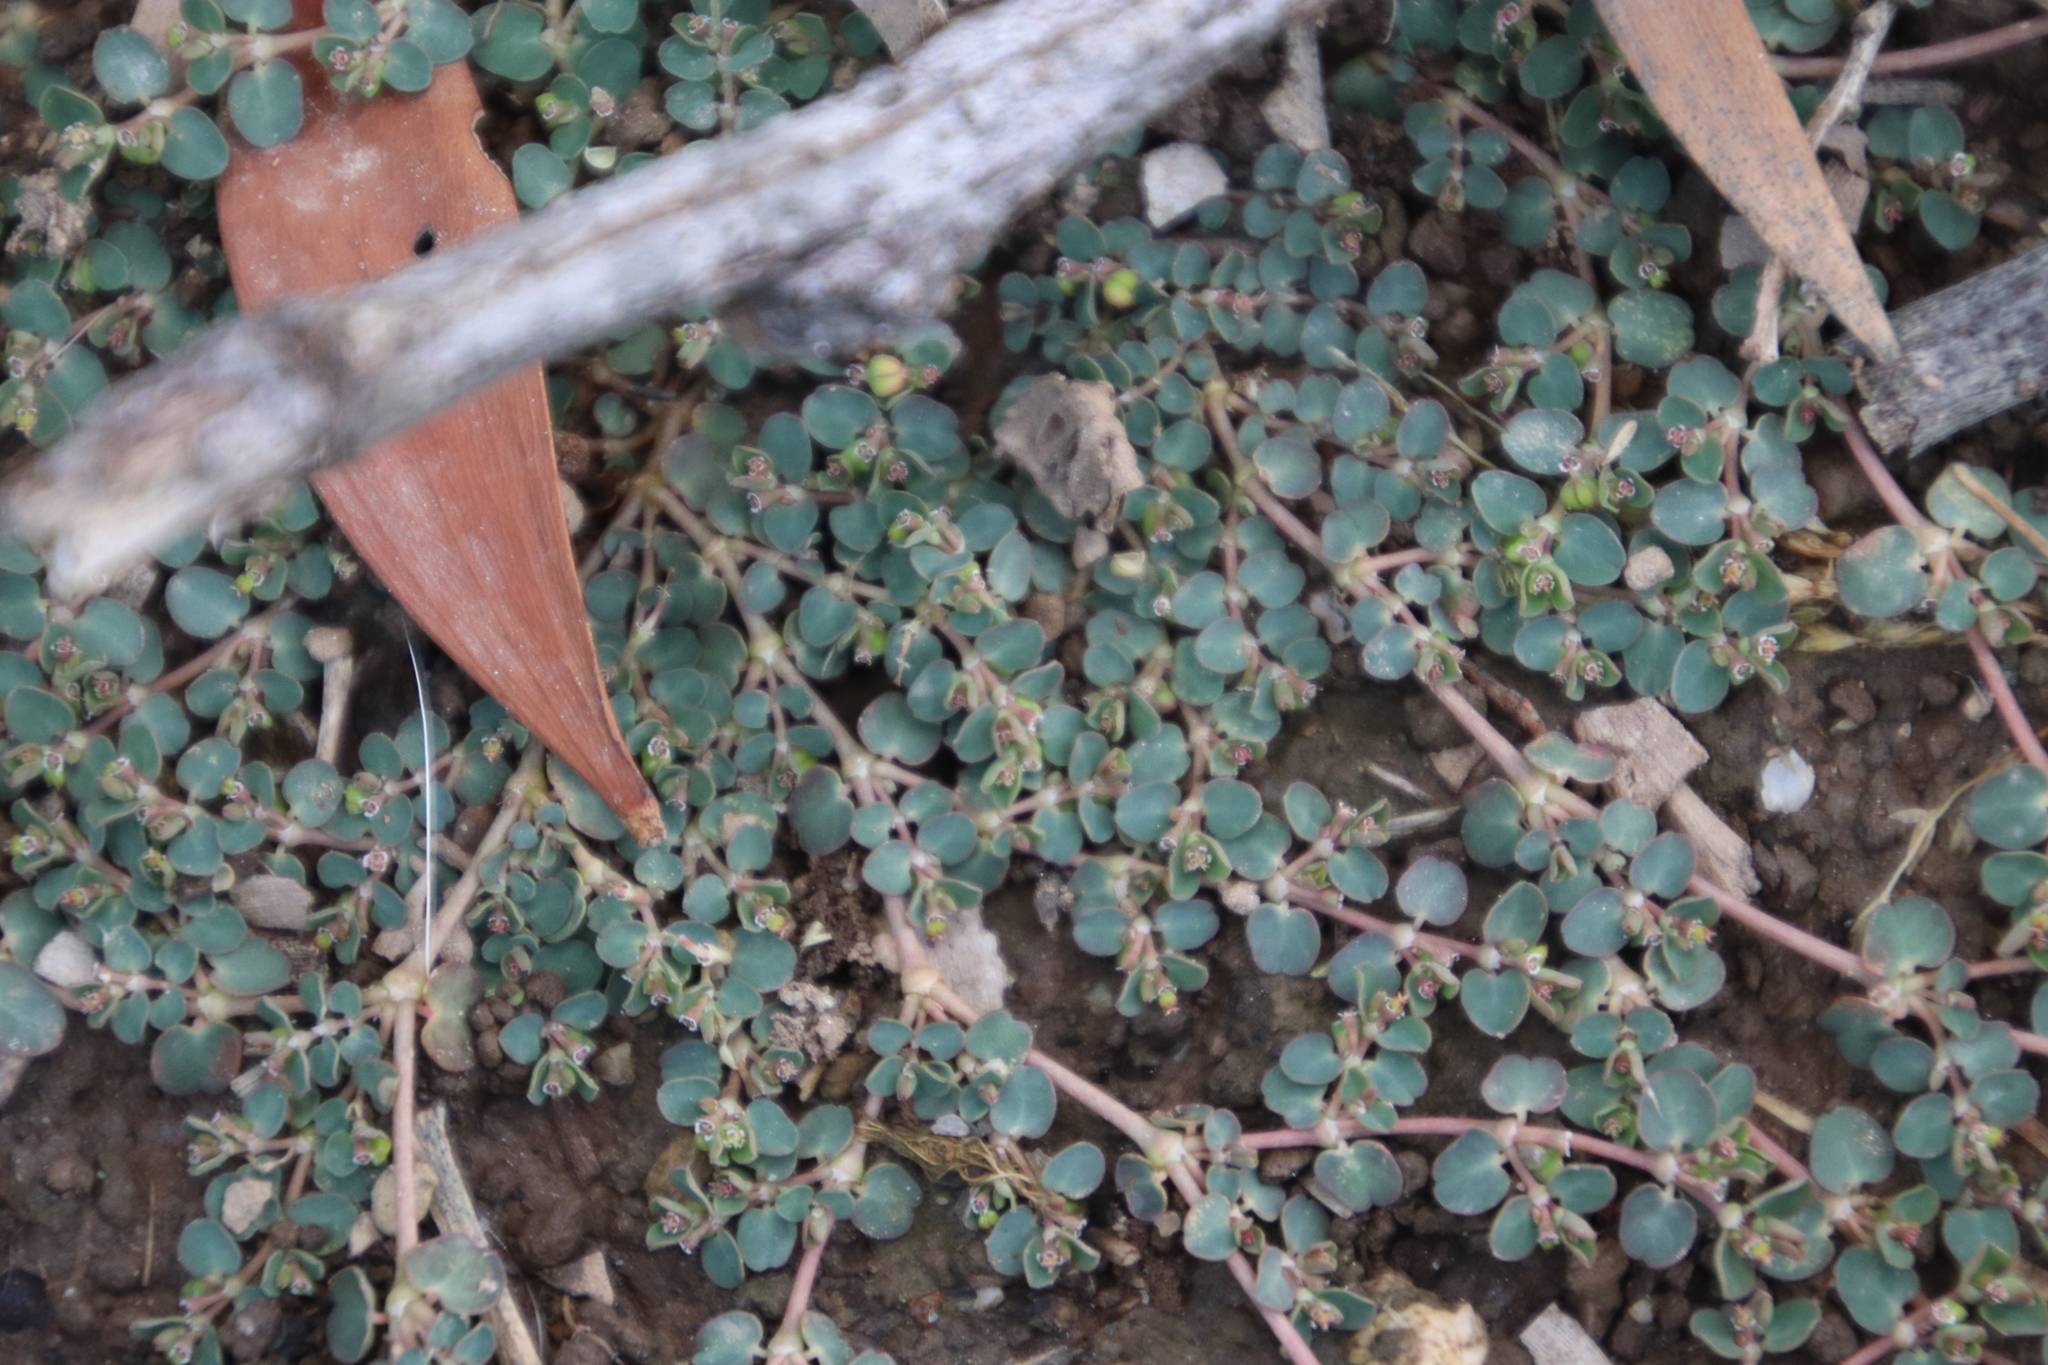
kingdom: Plantae
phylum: Tracheophyta
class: Magnoliopsida
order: Malpighiales
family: Euphorbiaceae
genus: Euphorbia
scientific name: Euphorbia serpens
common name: Matted sandmat
